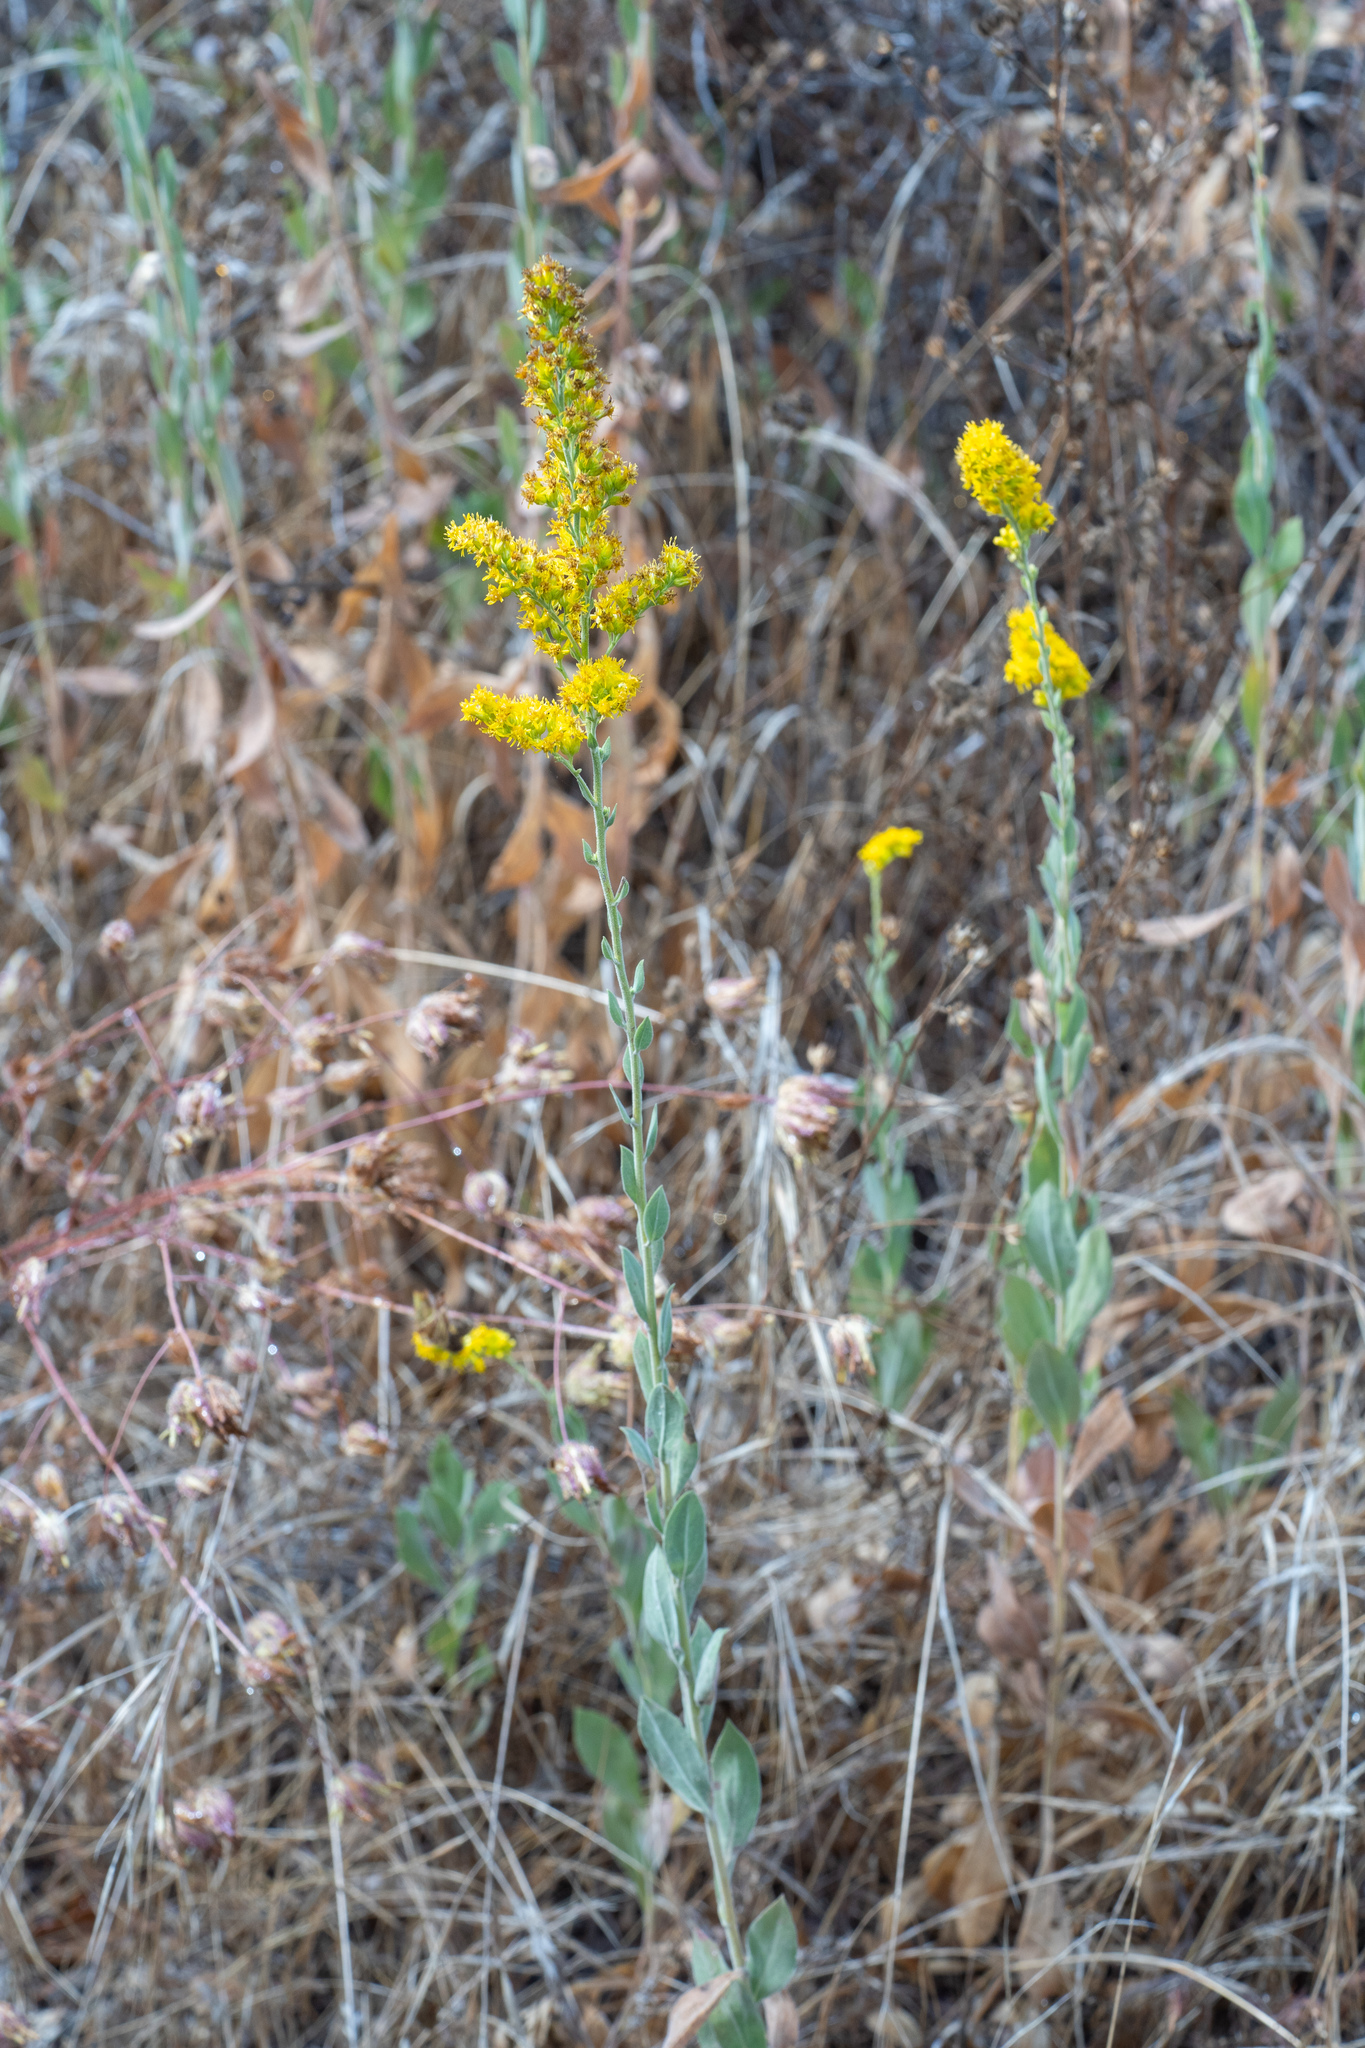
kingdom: Plantae
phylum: Tracheophyta
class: Magnoliopsida
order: Asterales
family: Asteraceae
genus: Solidago
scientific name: Solidago velutina
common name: Three-nerve goldenrod
